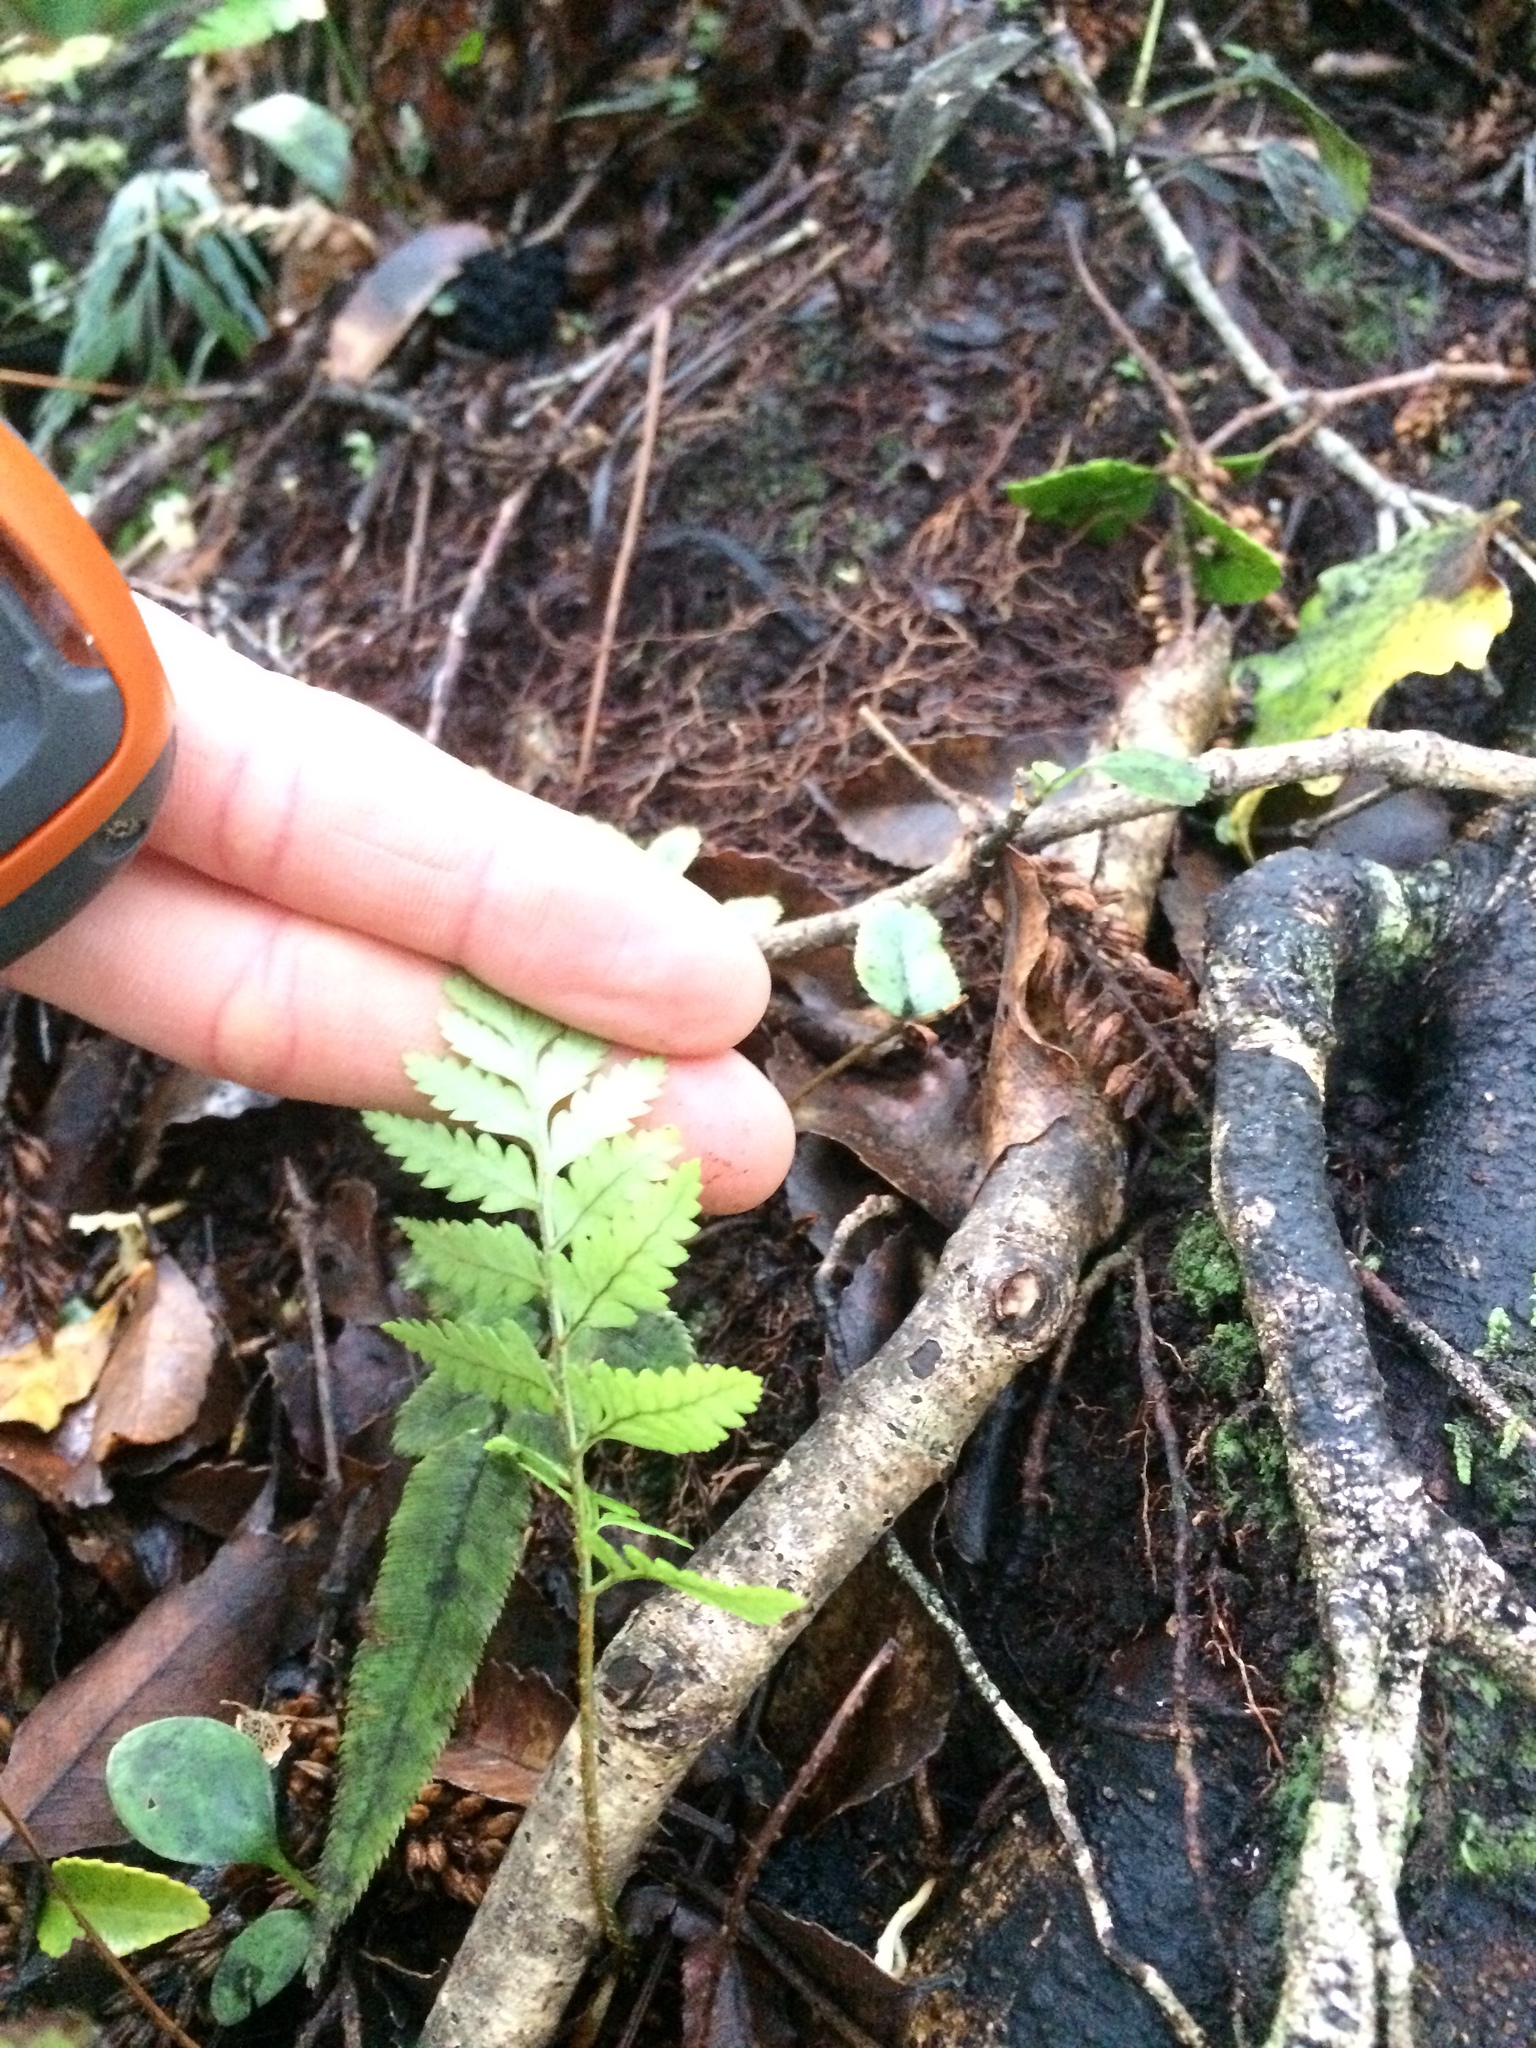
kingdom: Plantae
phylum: Tracheophyta
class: Polypodiopsida
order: Polypodiales
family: Dryopteridaceae
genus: Rumohra
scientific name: Rumohra adiantiformis
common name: Leather fern
